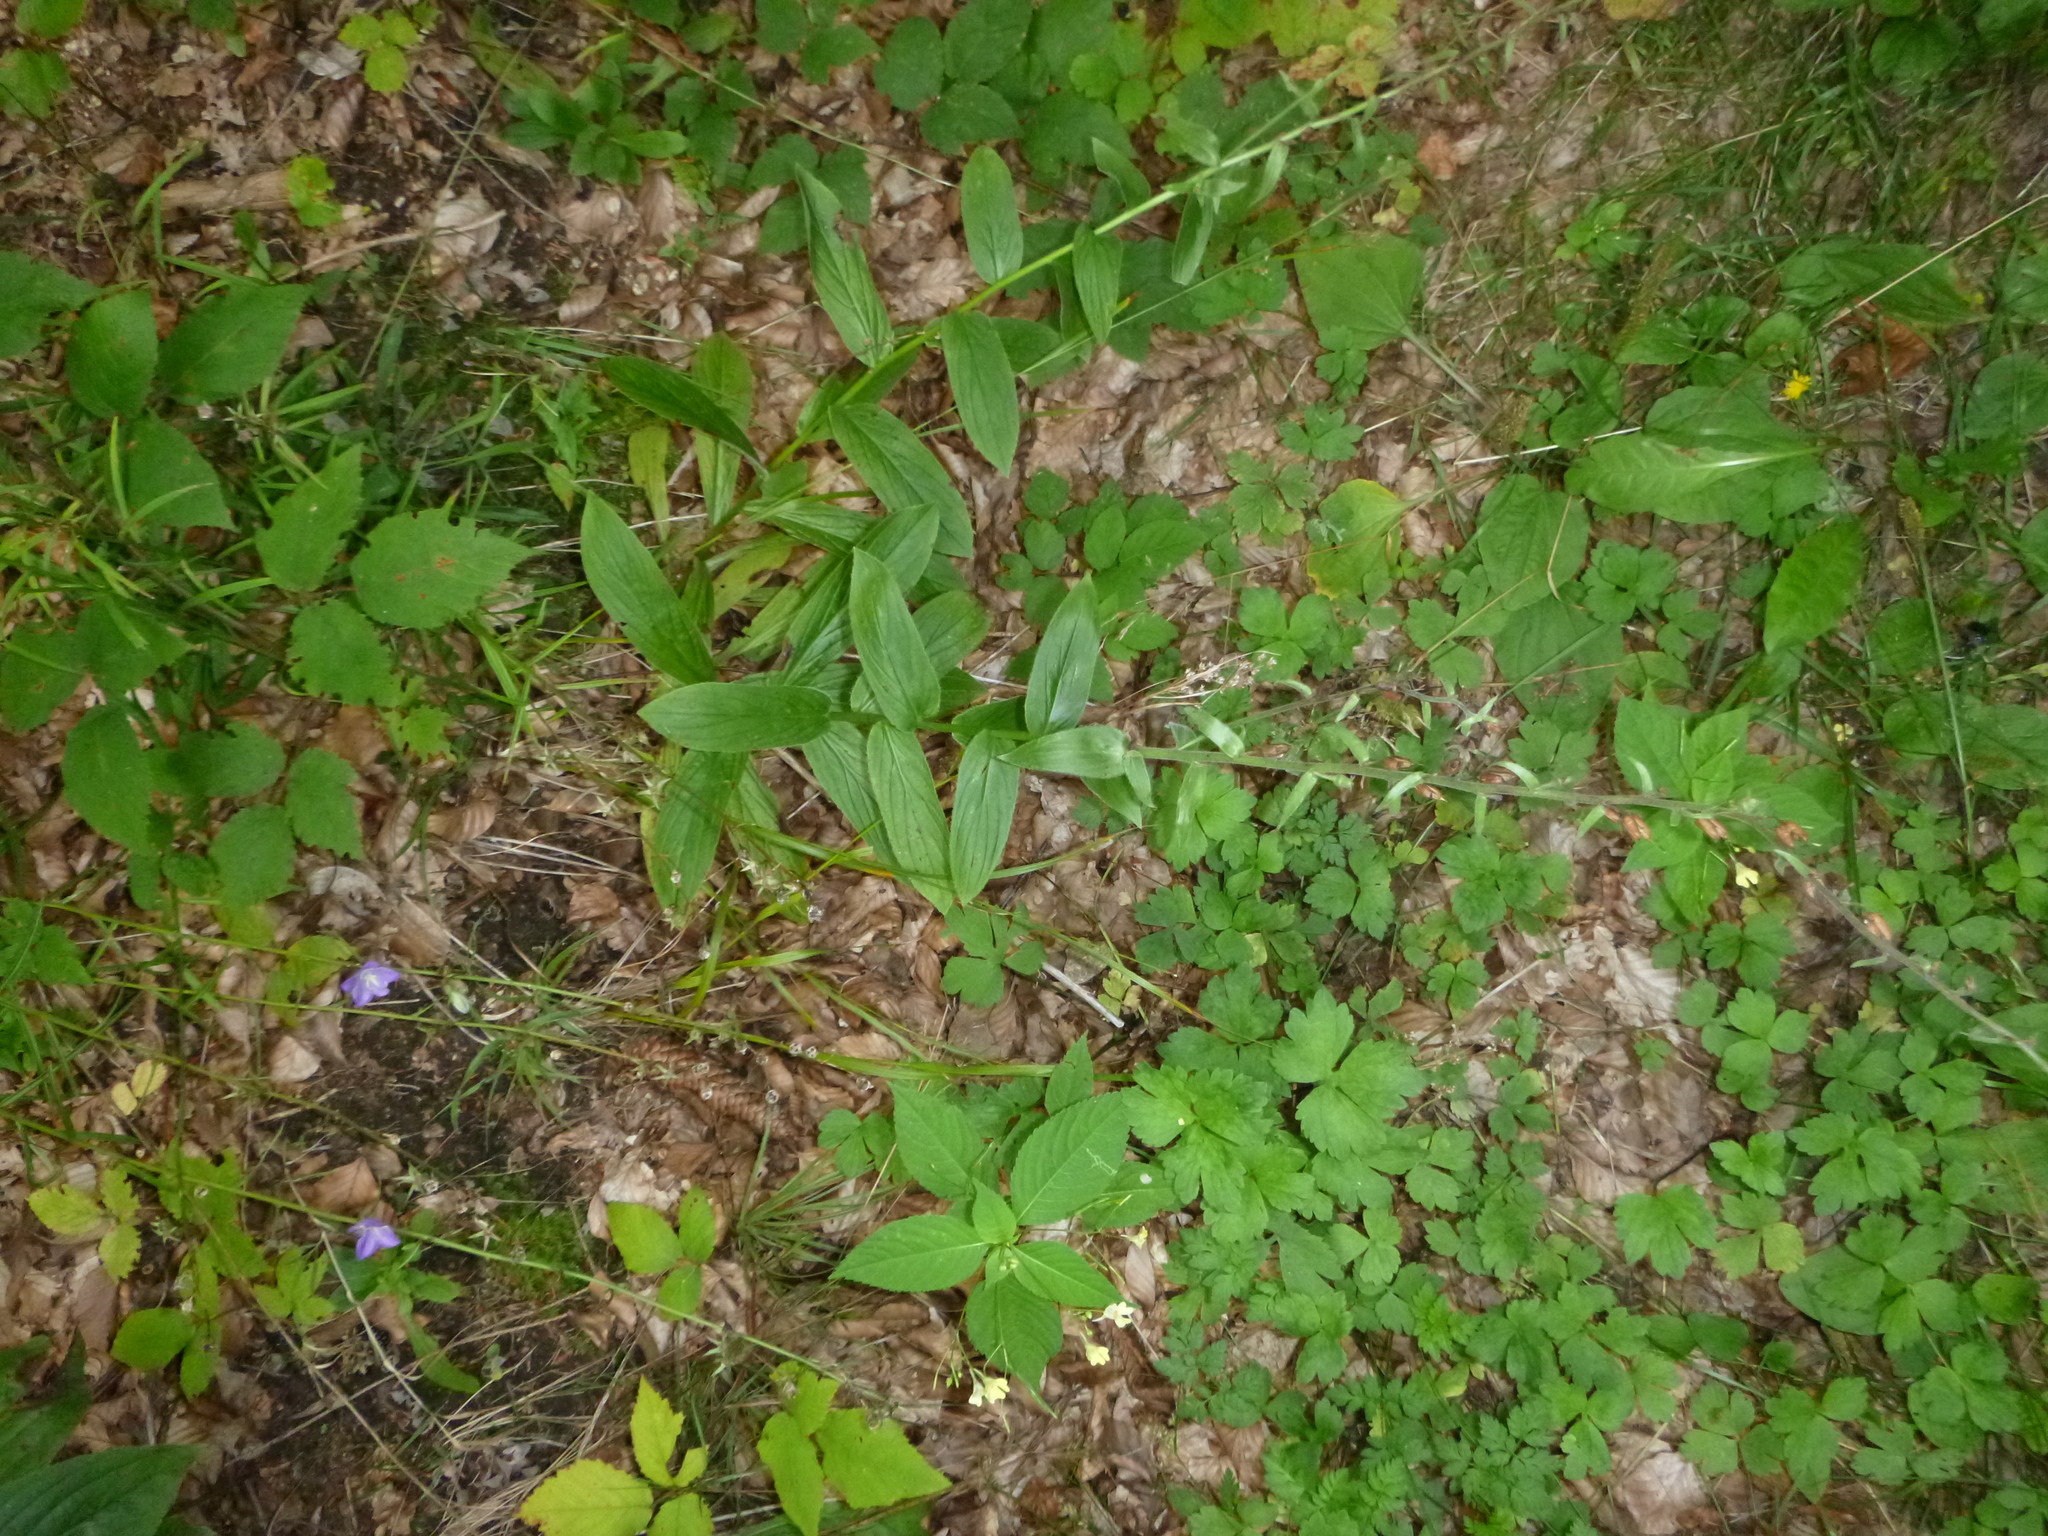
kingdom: Plantae
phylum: Tracheophyta
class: Magnoliopsida
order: Lamiales
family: Plantaginaceae
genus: Digitalis
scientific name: Digitalis grandiflora
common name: Yellow foxglove
